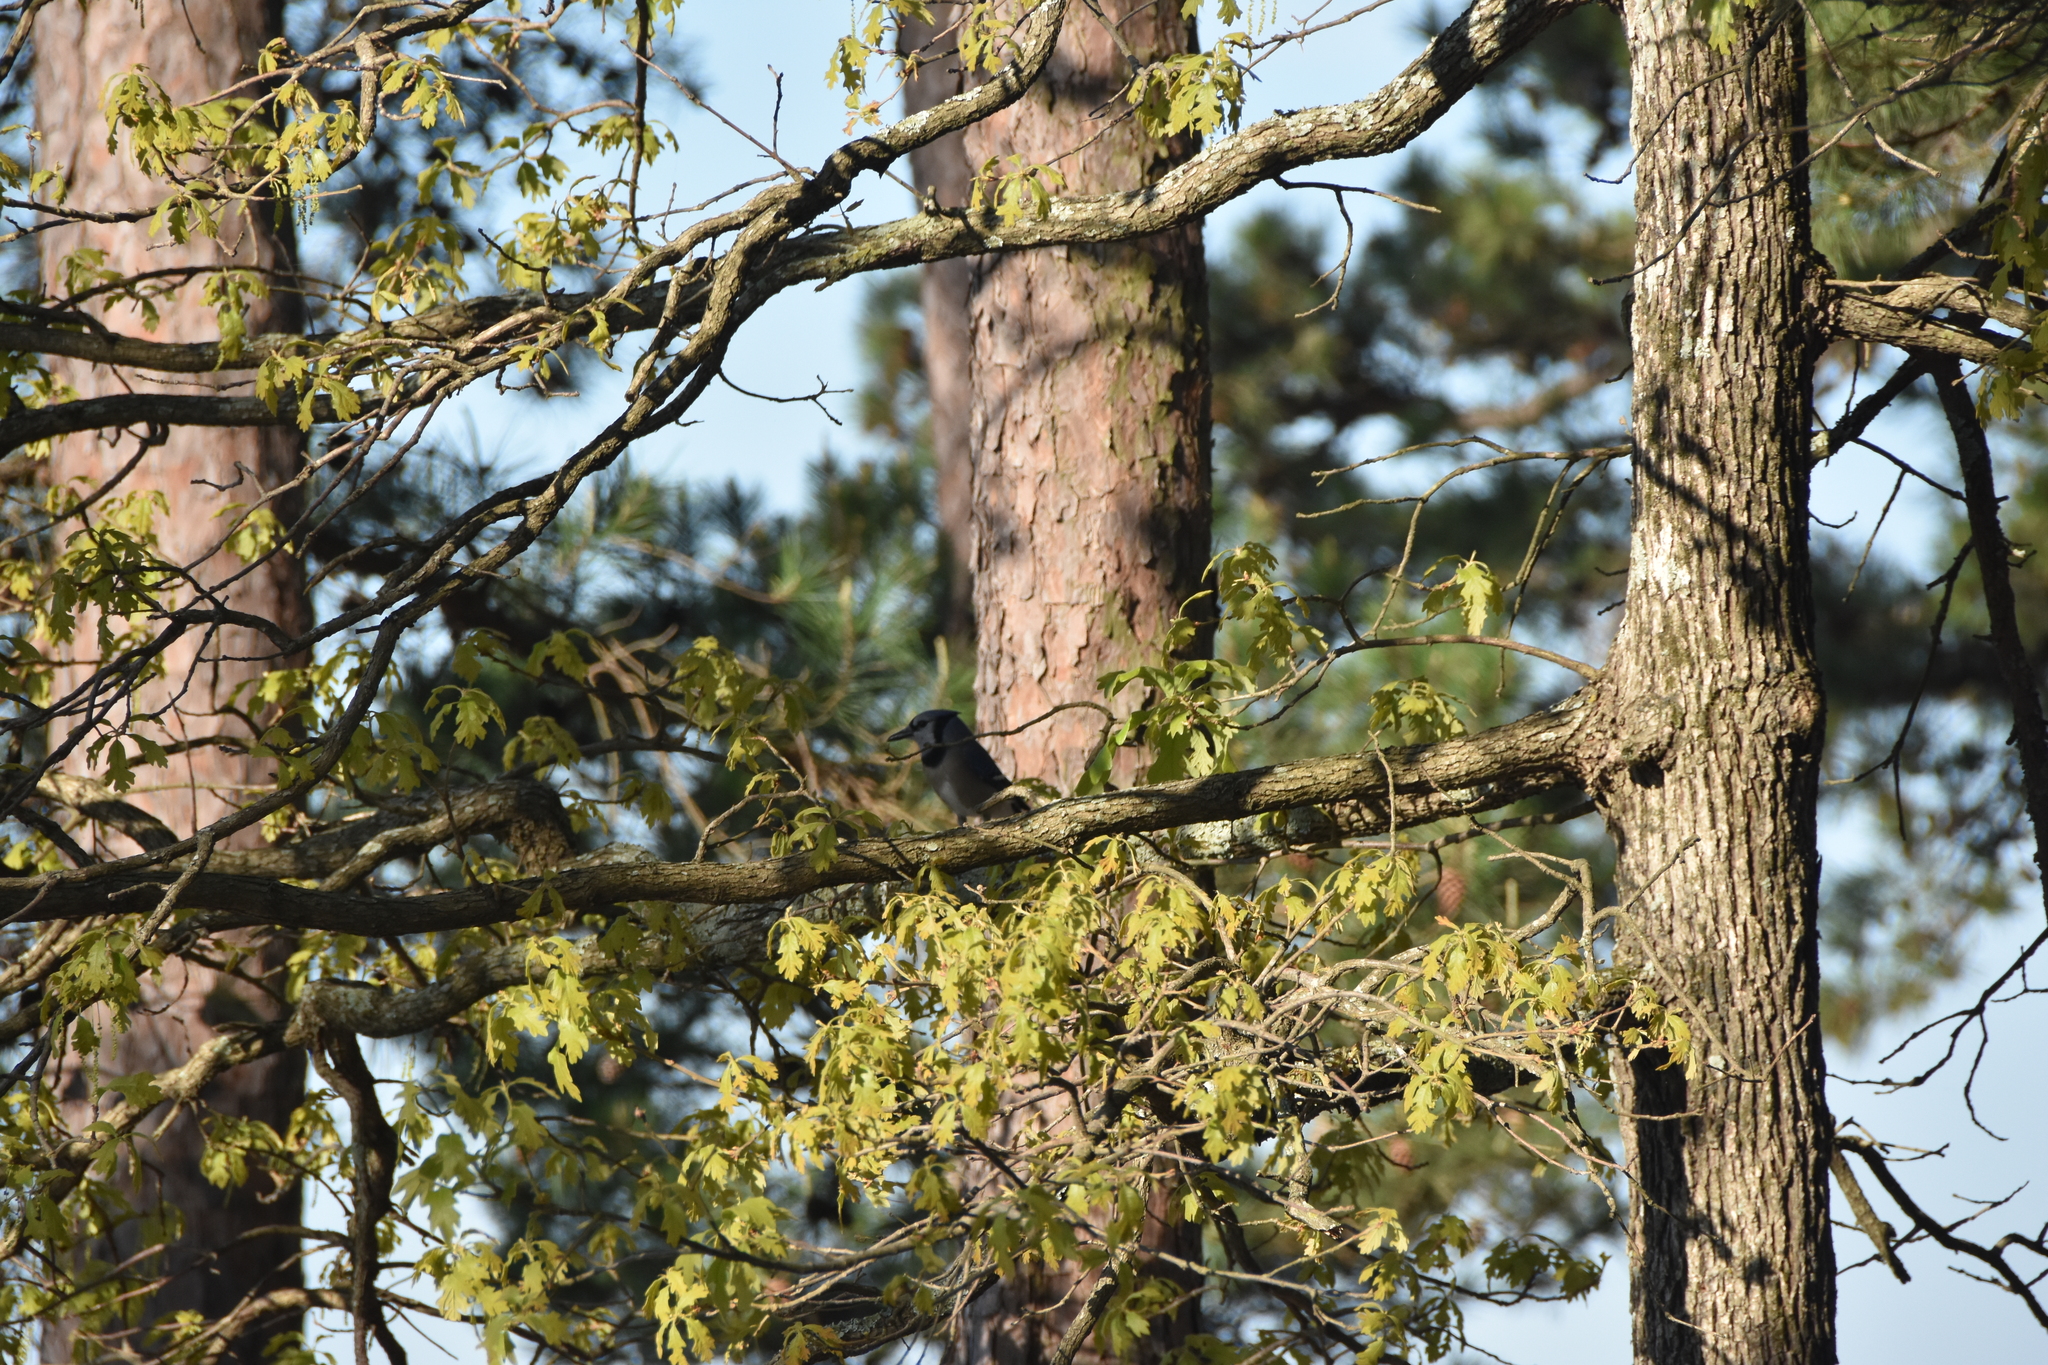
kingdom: Animalia
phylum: Chordata
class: Aves
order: Passeriformes
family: Corvidae
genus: Cyanocitta
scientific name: Cyanocitta cristata
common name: Blue jay
